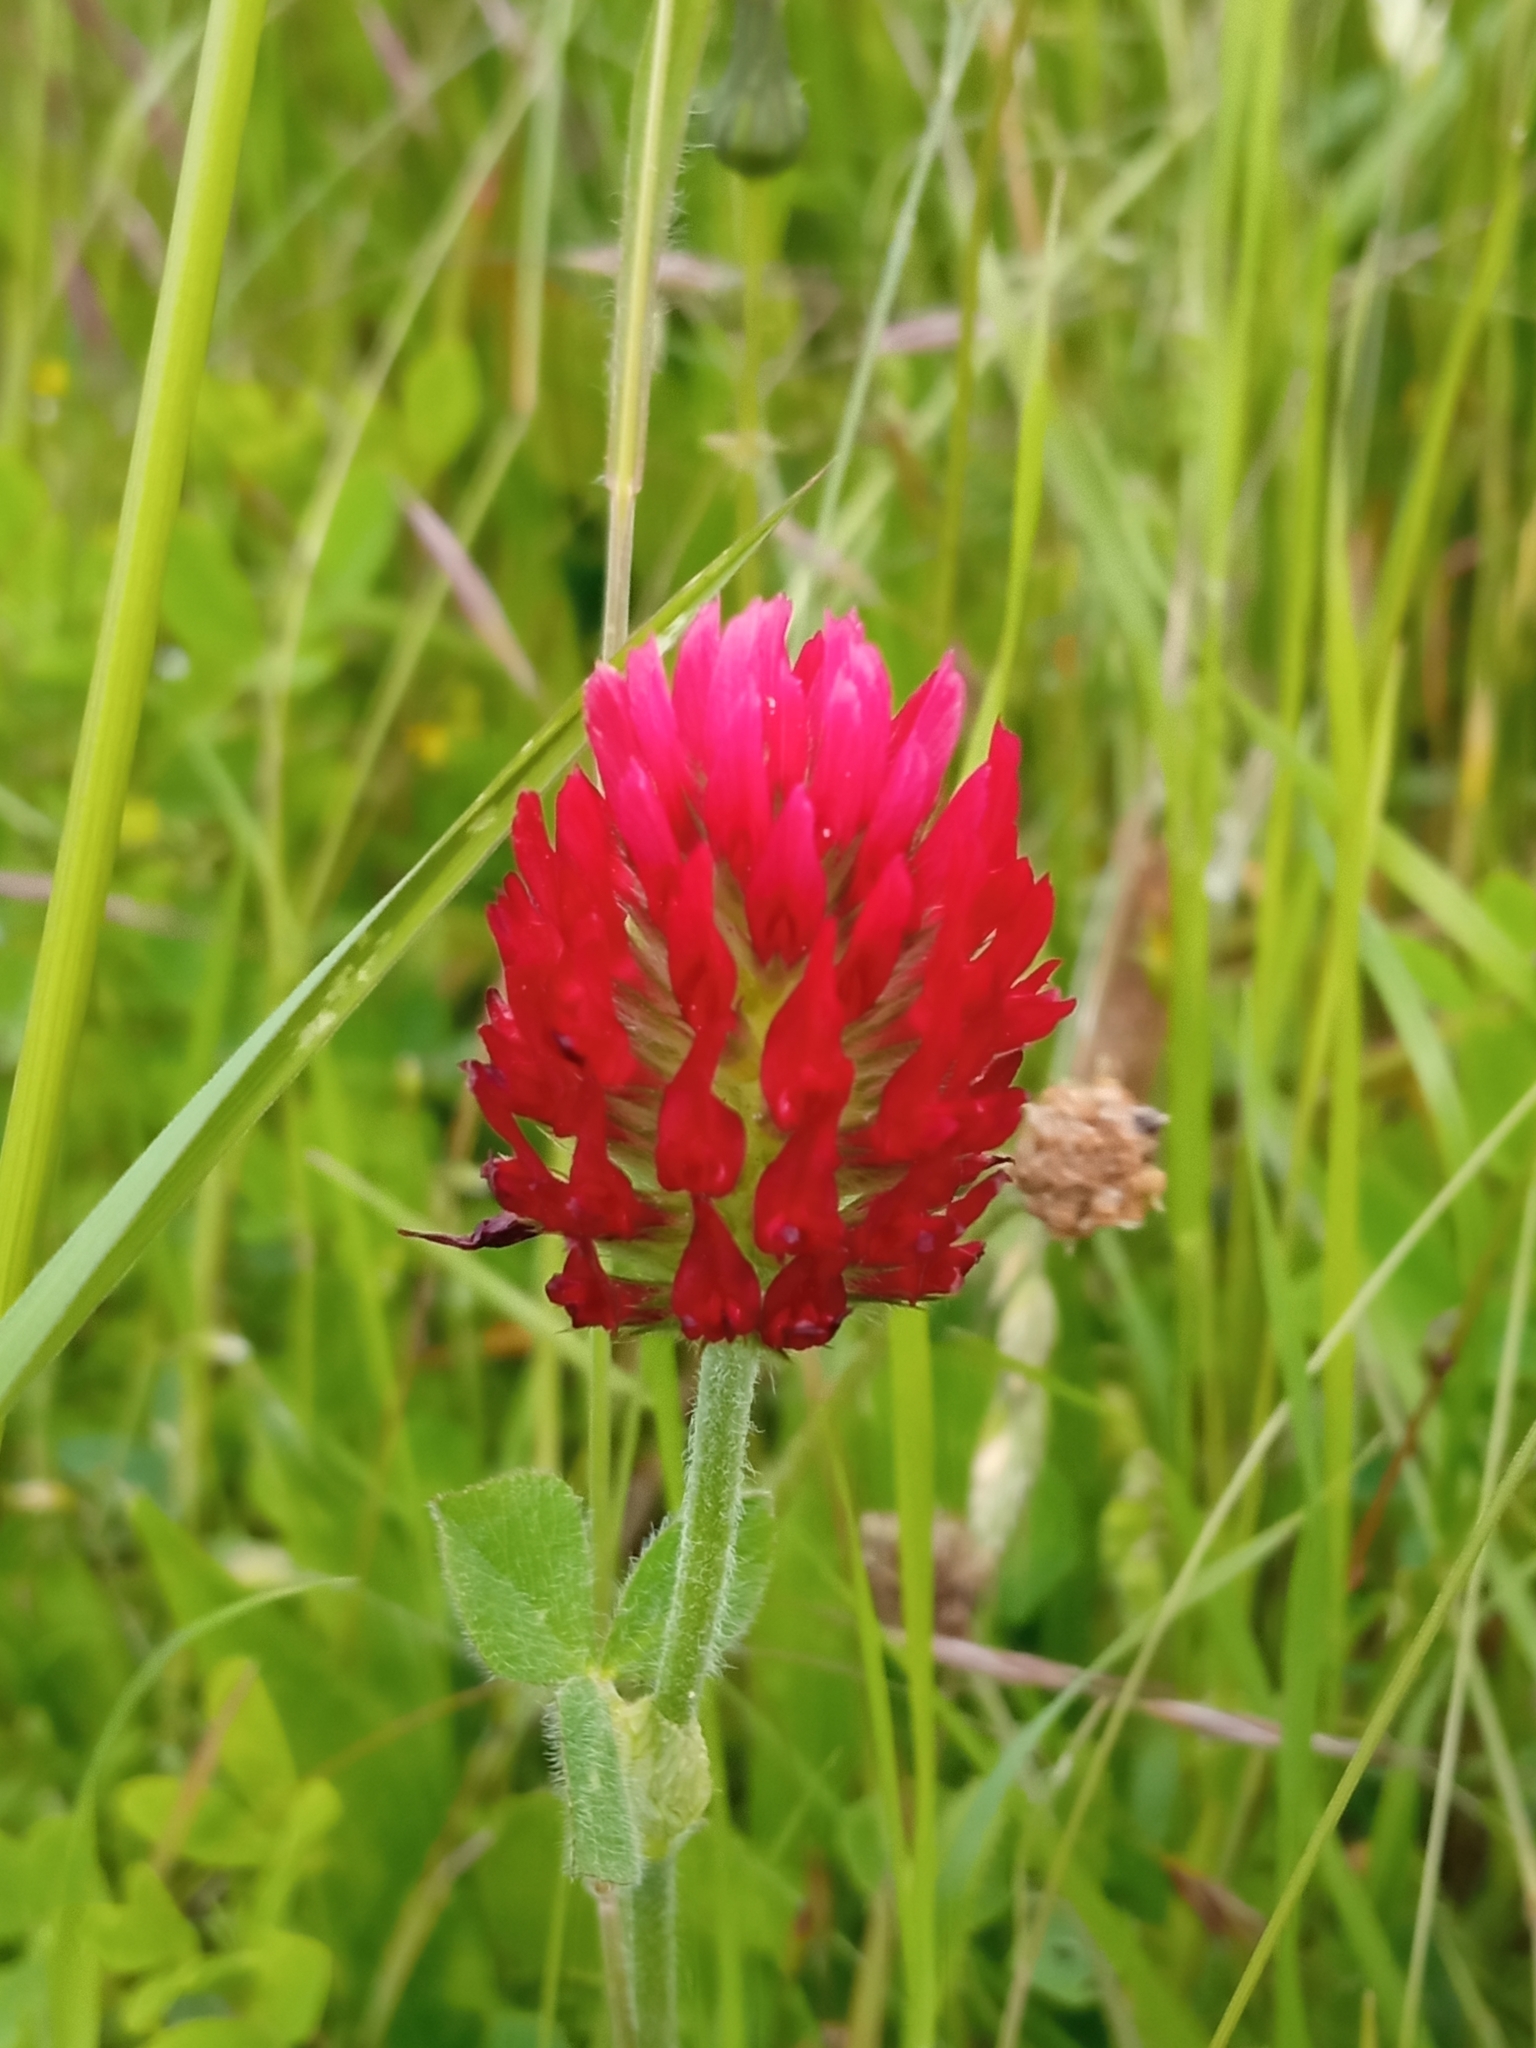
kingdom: Plantae
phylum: Tracheophyta
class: Magnoliopsida
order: Fabales
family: Fabaceae
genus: Trifolium
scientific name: Trifolium incarnatum
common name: Crimson clover
